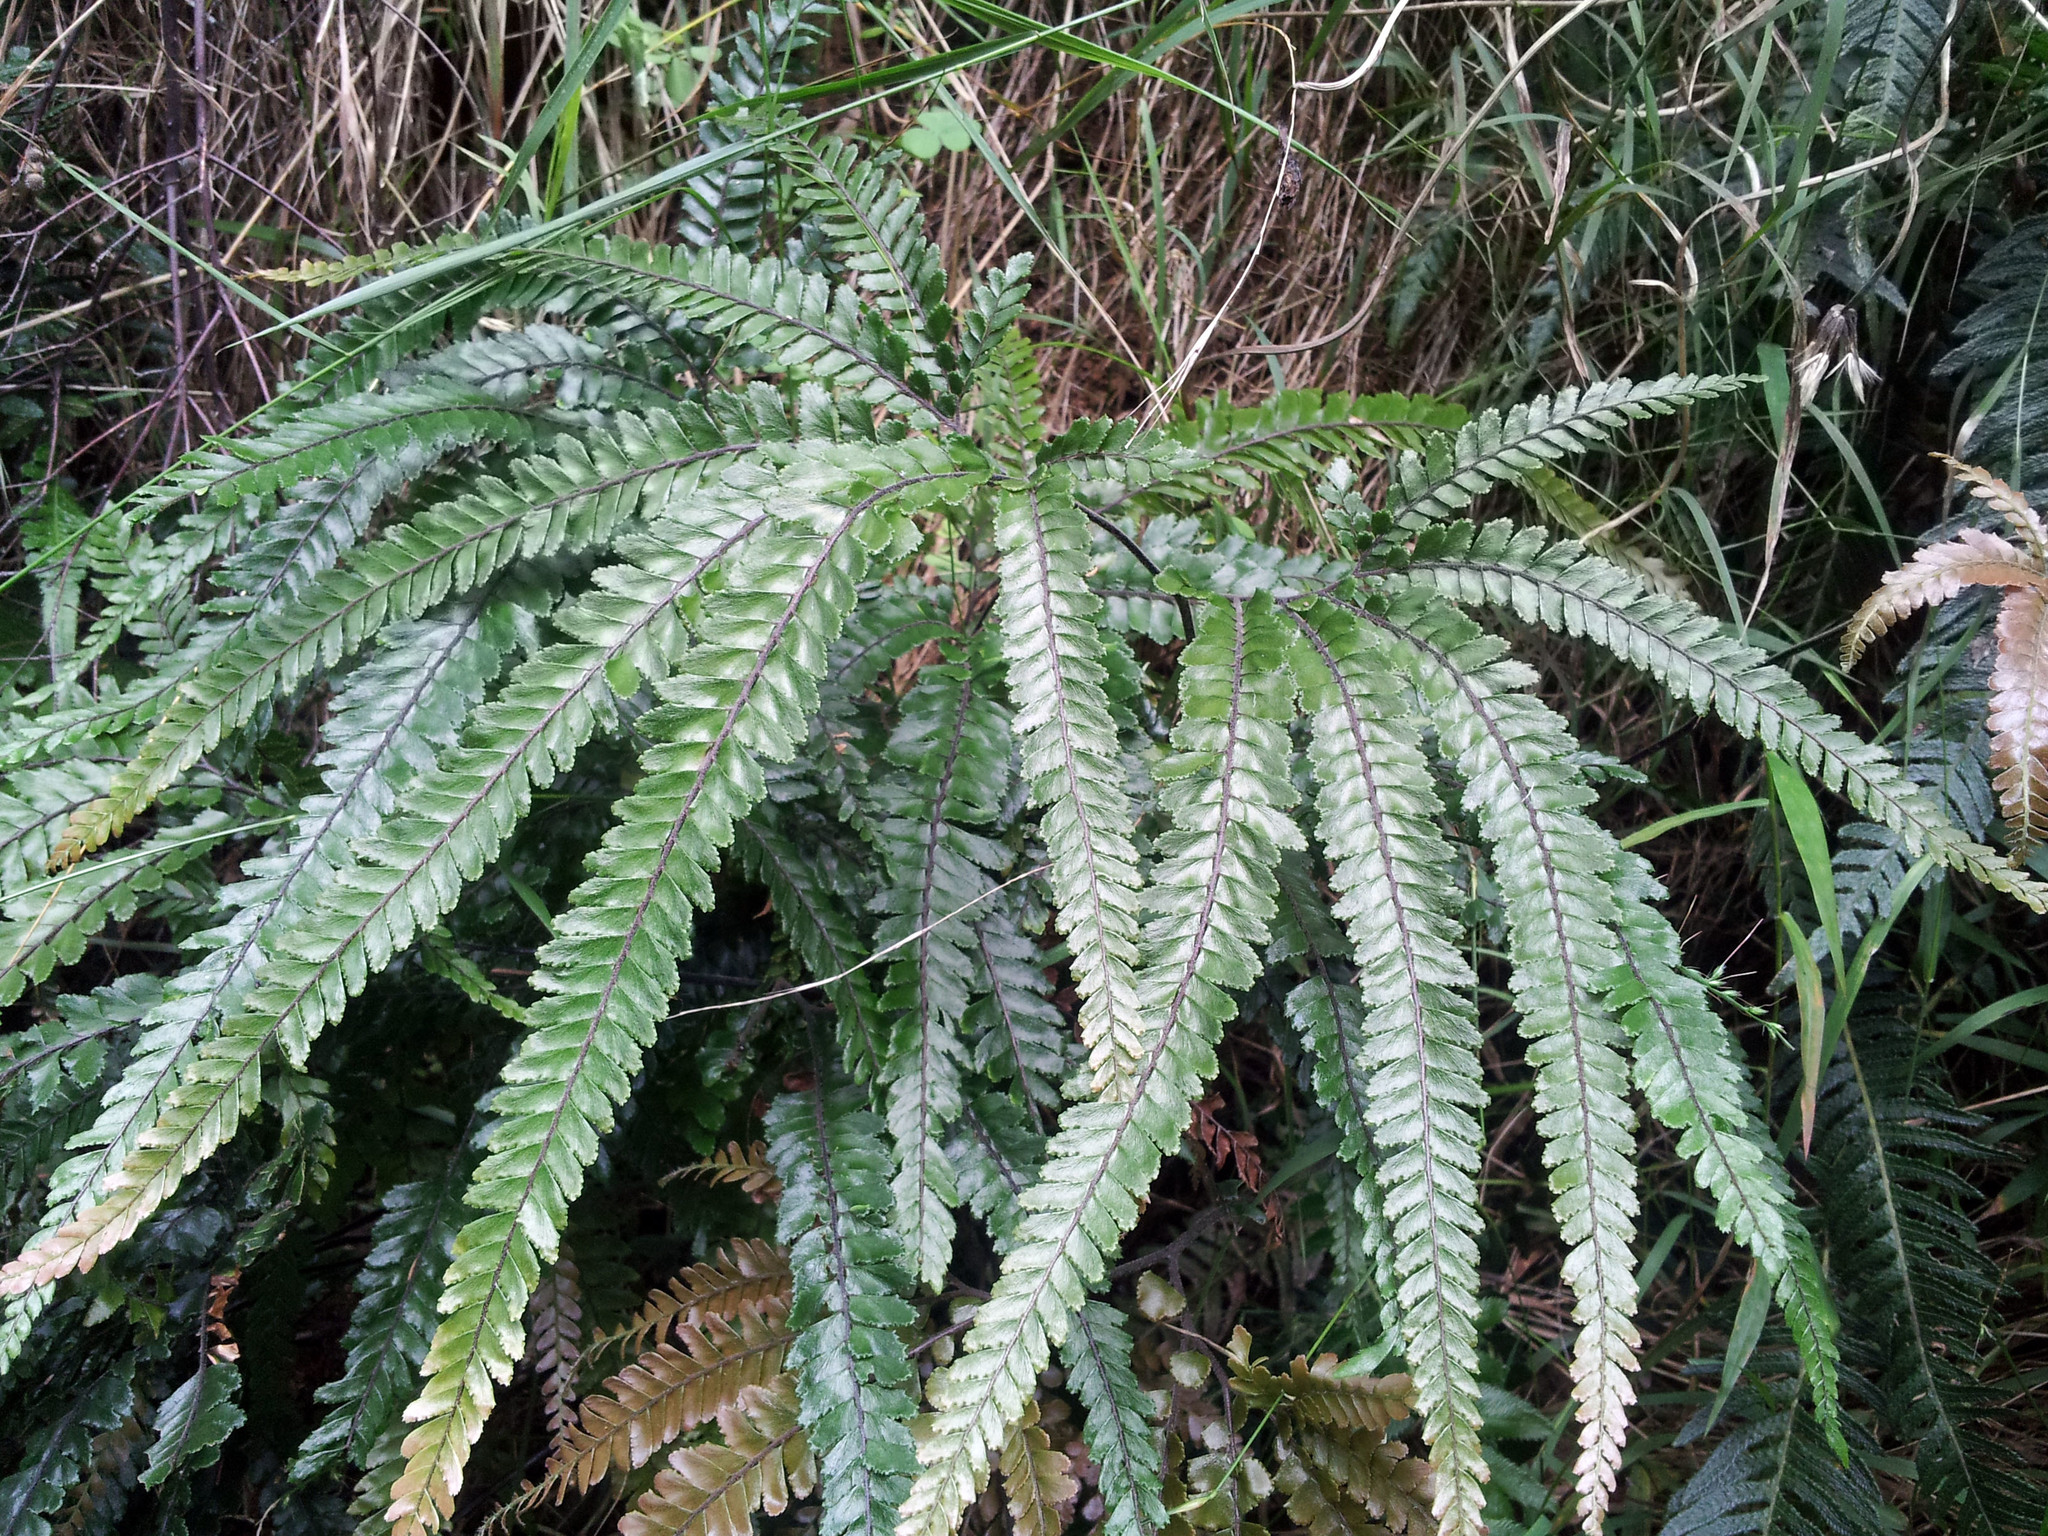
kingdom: Plantae
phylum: Tracheophyta
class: Polypodiopsida
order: Polypodiales
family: Pteridaceae
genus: Adiantum
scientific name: Adiantum hispidulum
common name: Rough maidenhair
